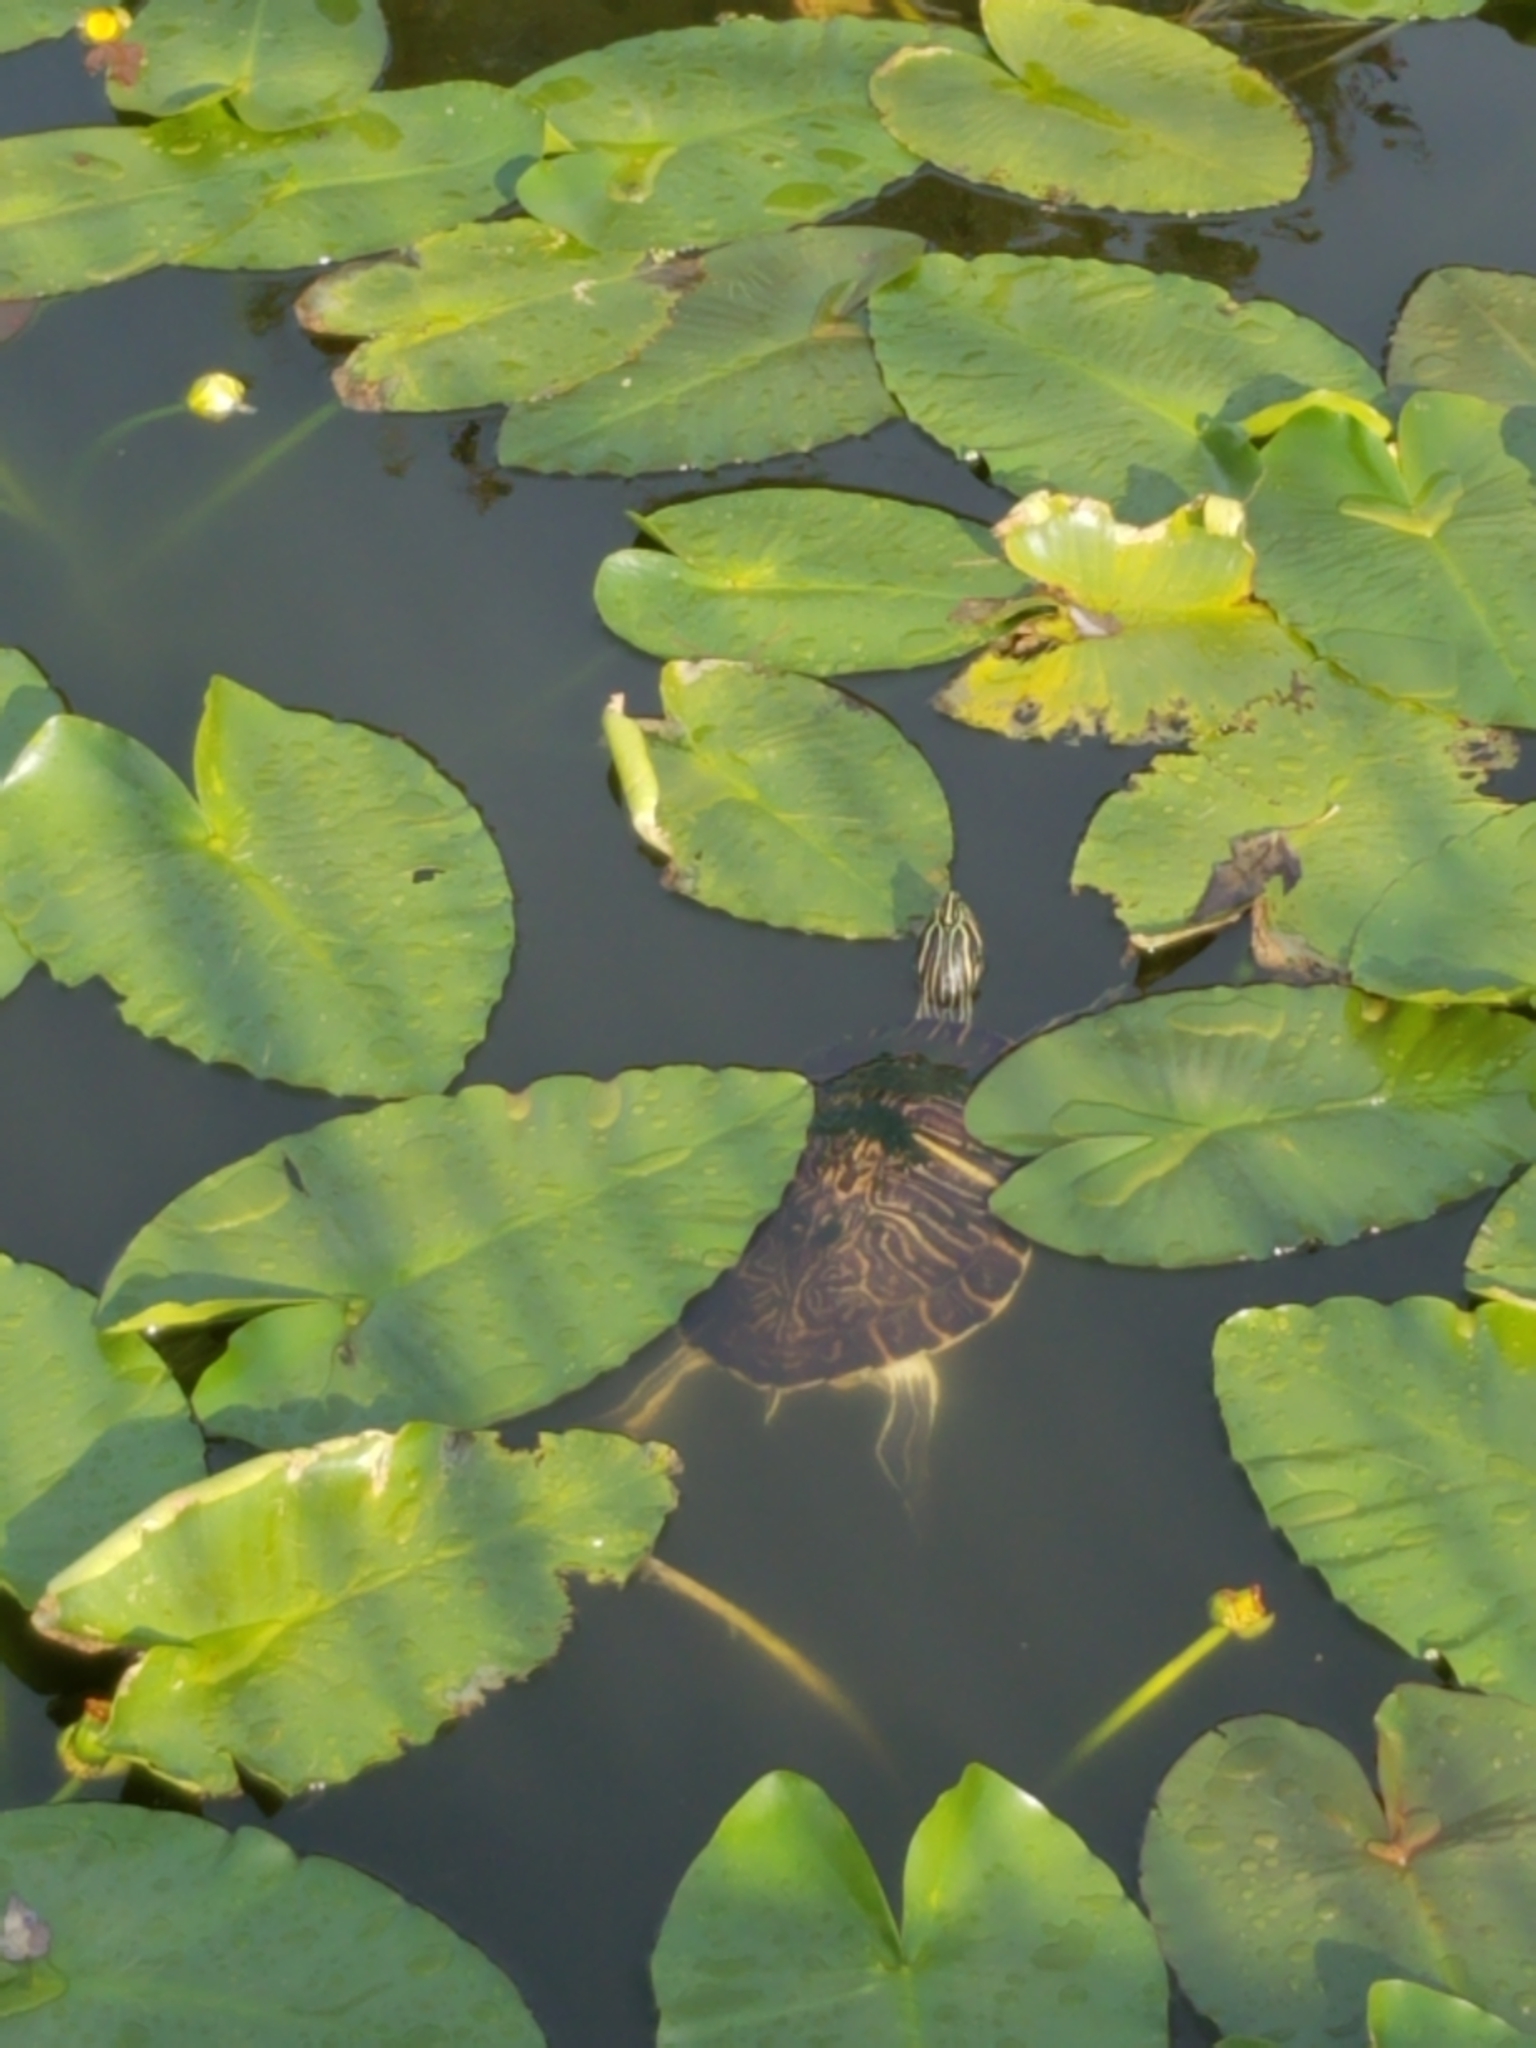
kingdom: Animalia
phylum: Chordata
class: Testudines
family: Emydidae
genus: Trachemys
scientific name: Trachemys scripta
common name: Slider
